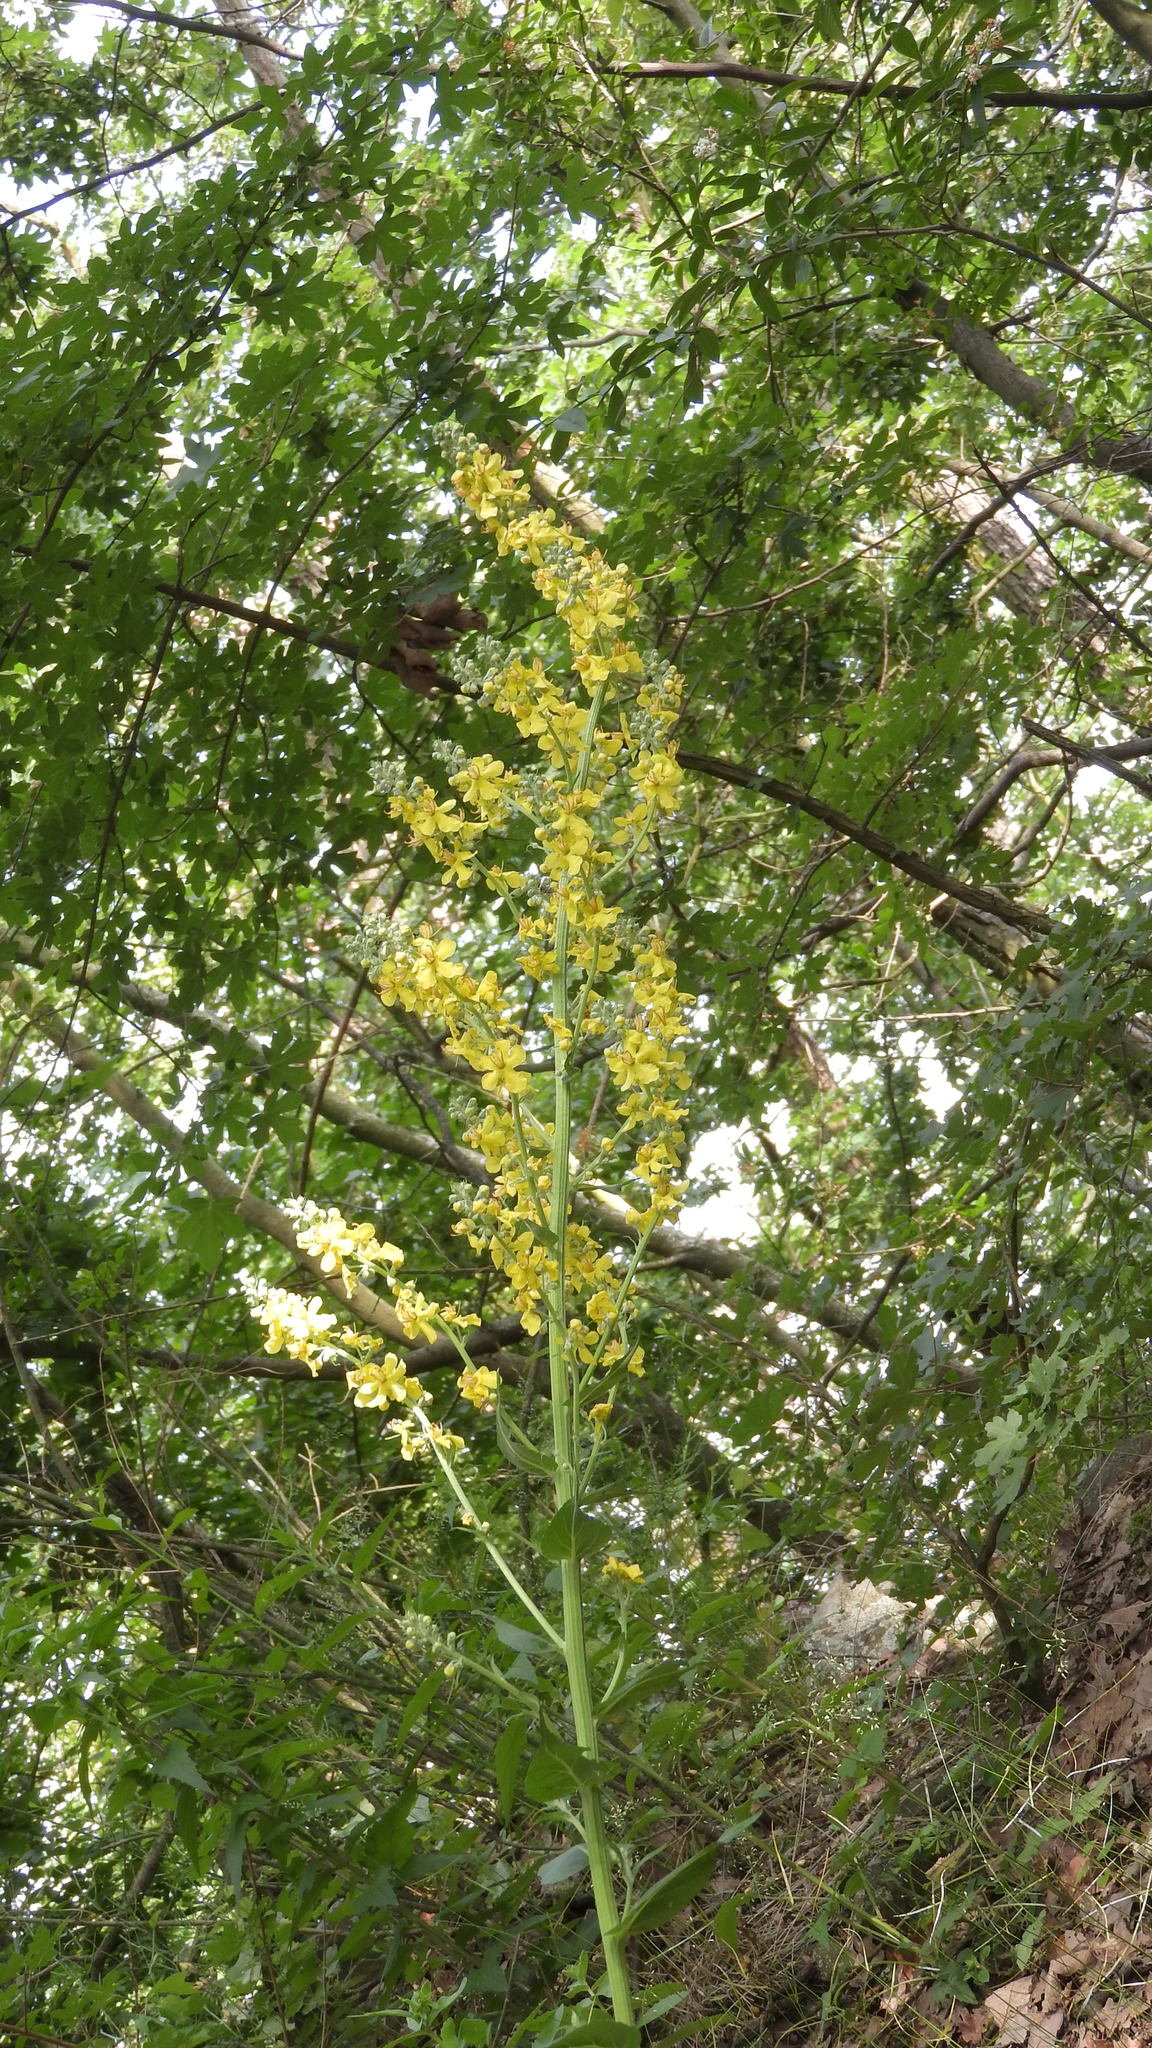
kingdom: Plantae
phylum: Tracheophyta
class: Magnoliopsida
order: Lamiales
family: Scrophulariaceae
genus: Verbascum
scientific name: Verbascum lychnitis
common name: White mullein
